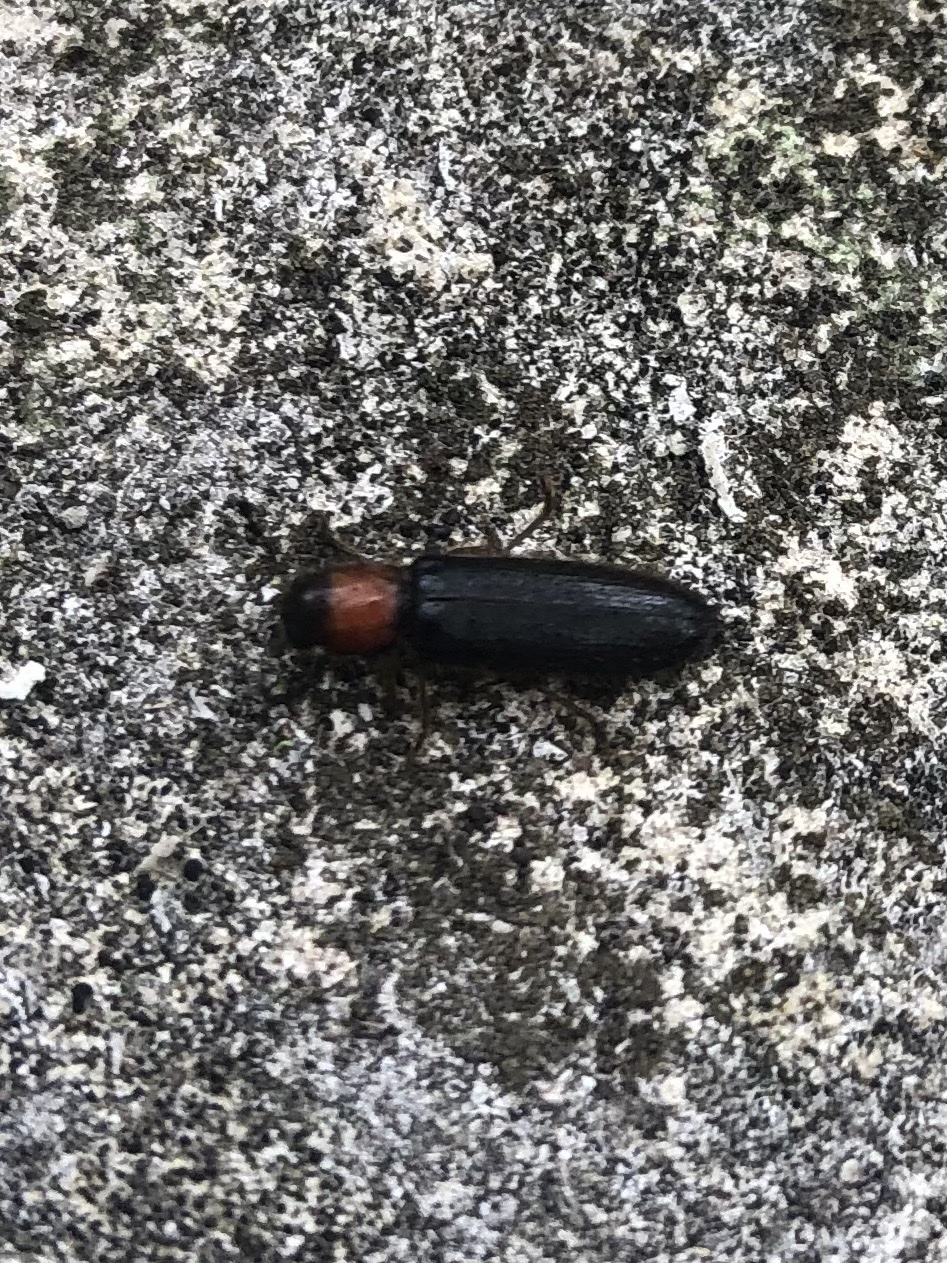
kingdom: Animalia
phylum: Arthropoda
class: Insecta
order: Coleoptera
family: Cleridae
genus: Neorthopleura
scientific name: Neorthopleura thoracica
